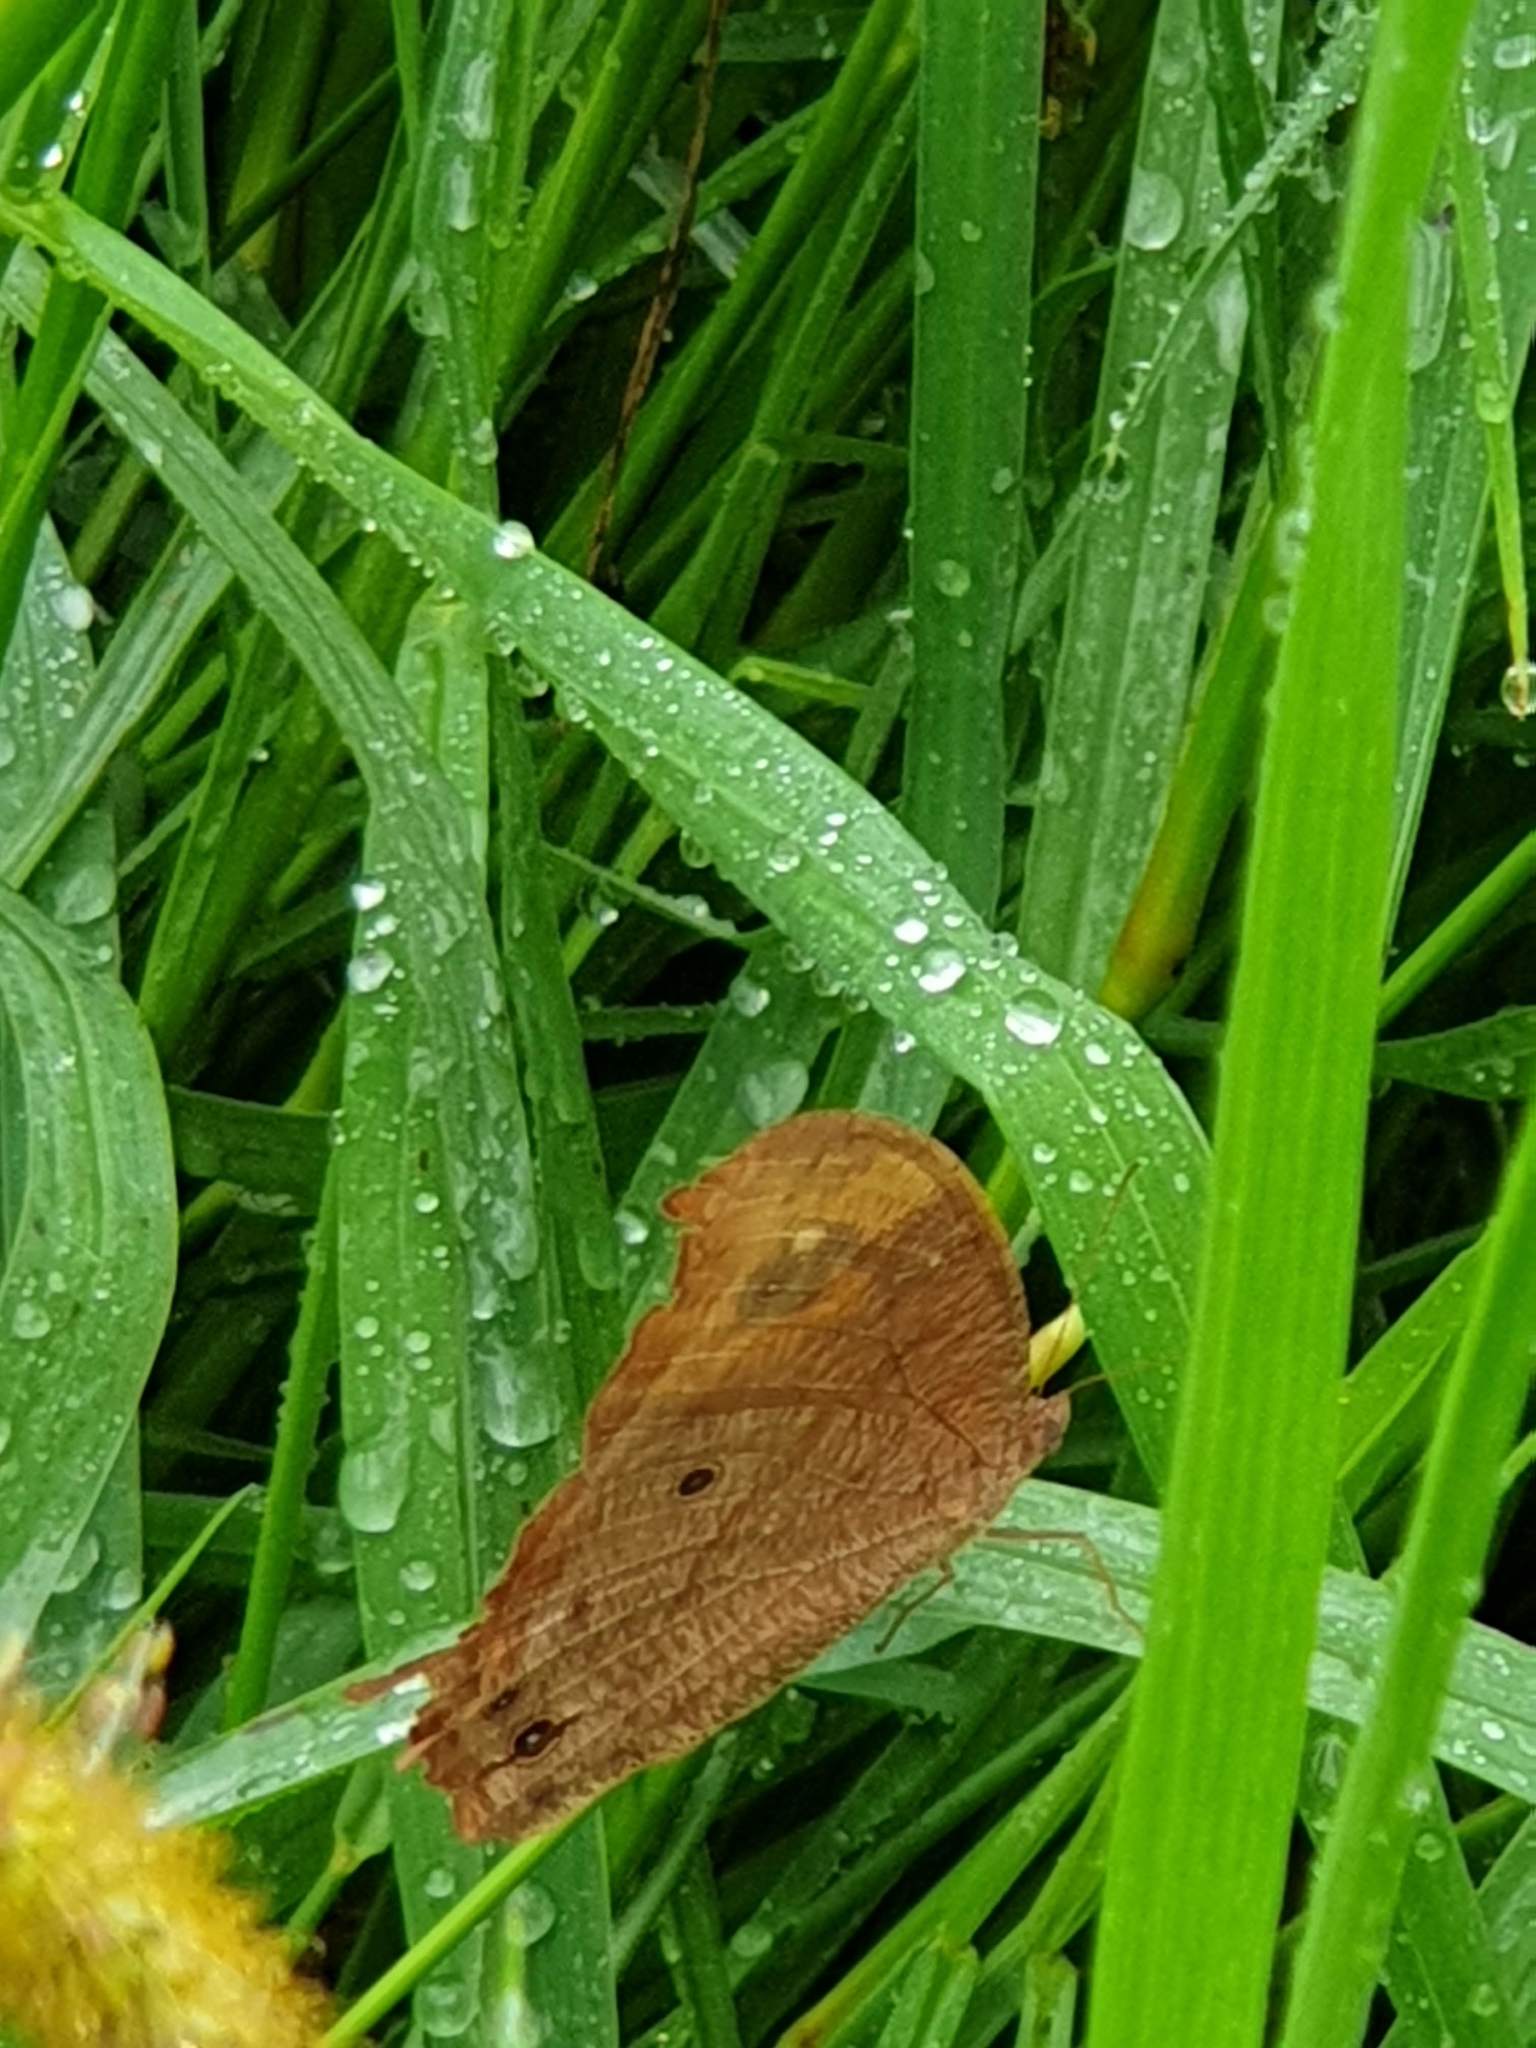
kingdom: Animalia
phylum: Arthropoda
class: Insecta
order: Lepidoptera
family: Nymphalidae
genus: Melanitis
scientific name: Melanitis leda
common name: Twilight brown
